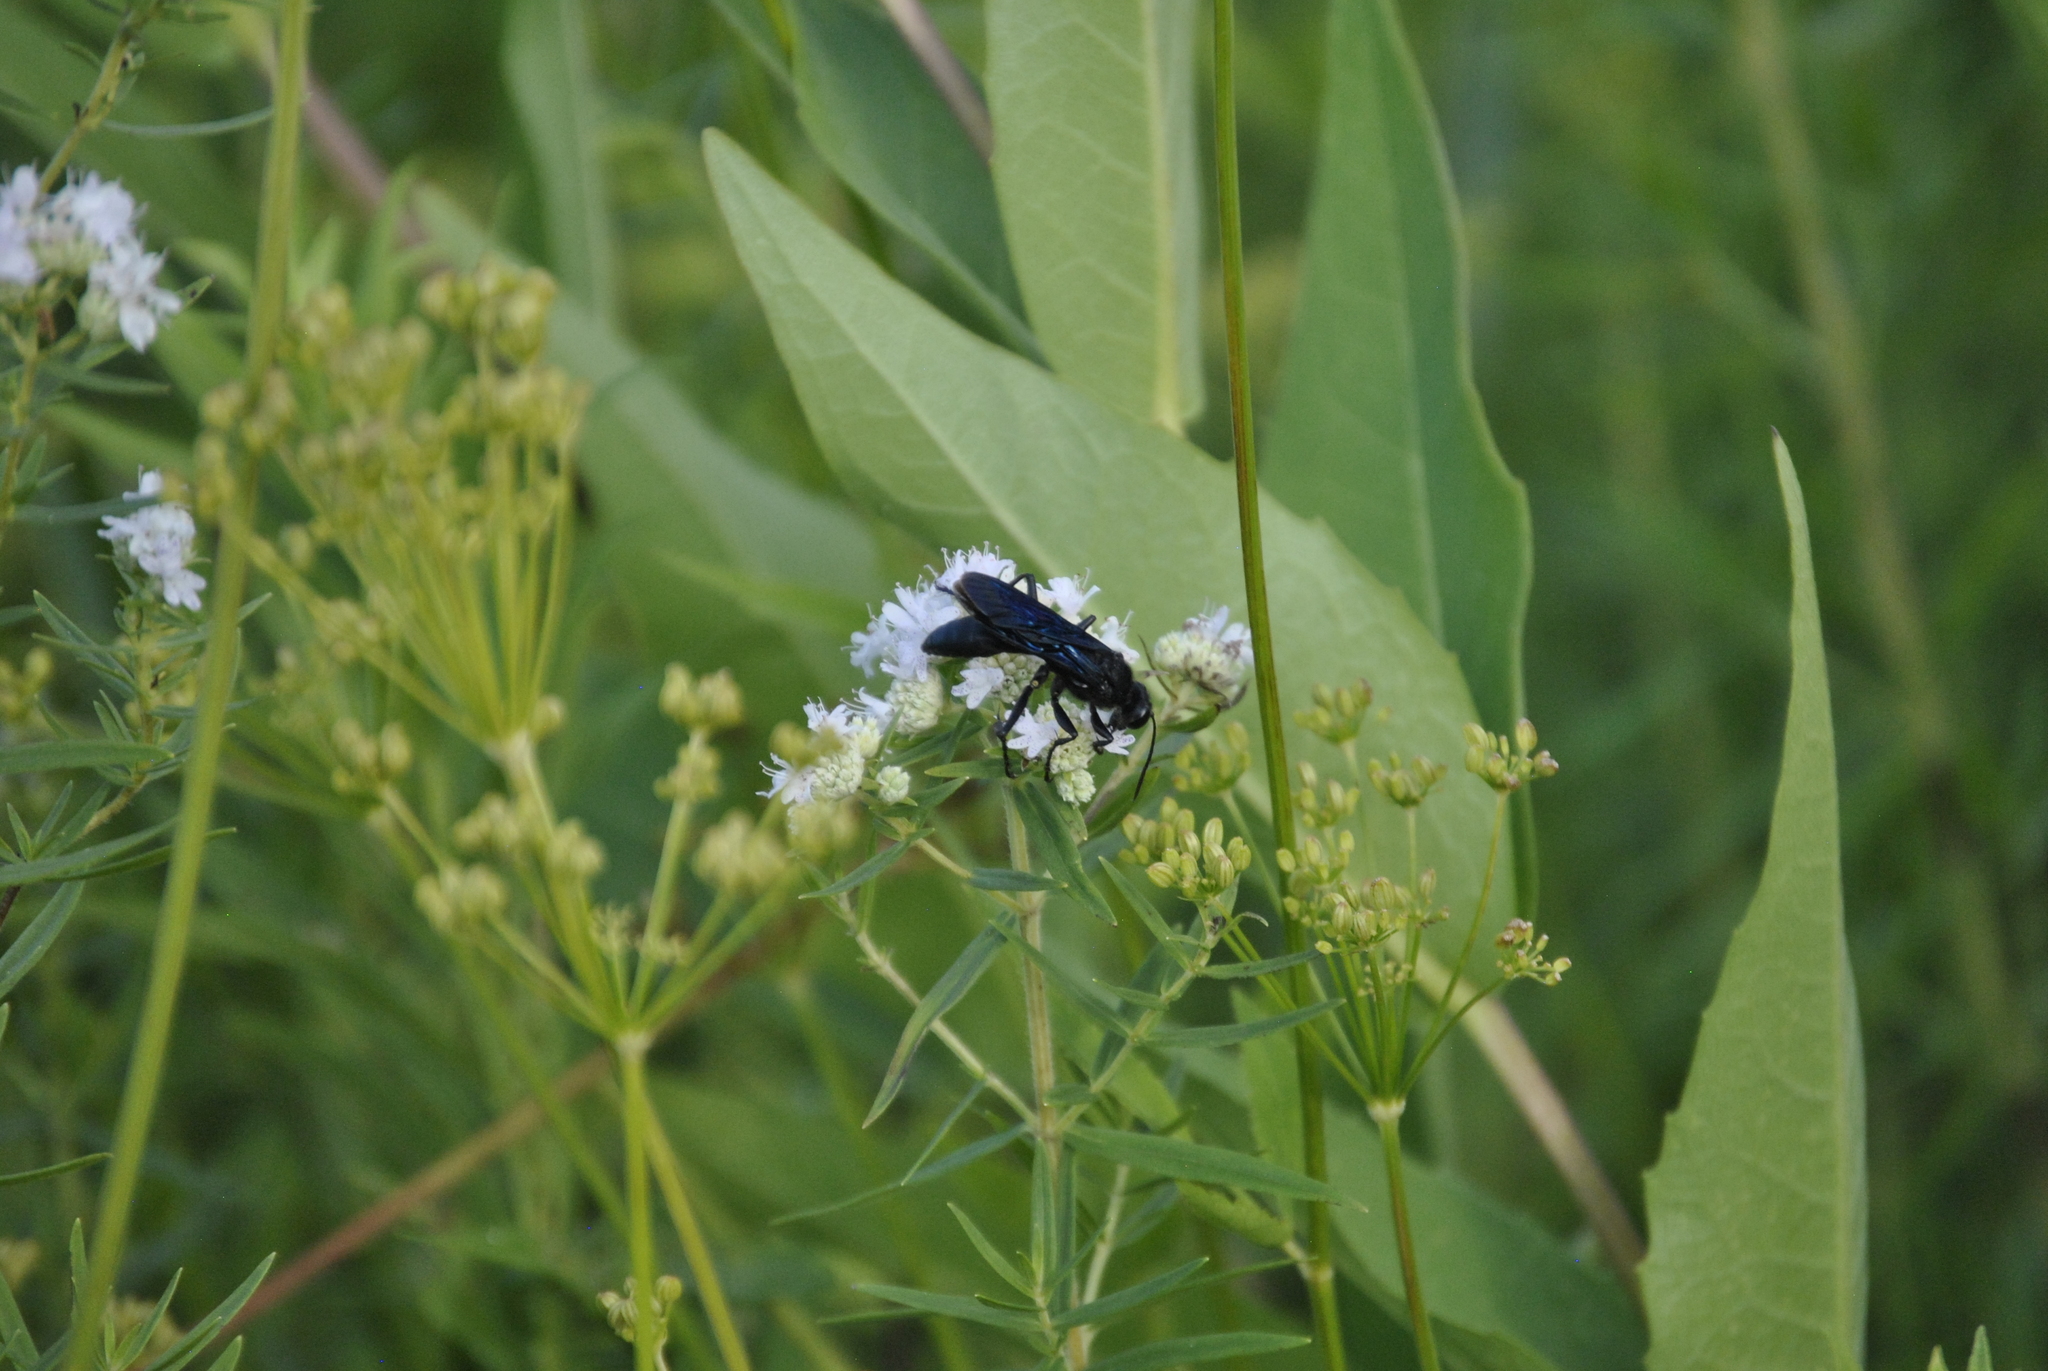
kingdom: Animalia
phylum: Arthropoda
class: Insecta
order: Hymenoptera
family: Sphecidae
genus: Sphex
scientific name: Sphex pensylvanicus
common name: Great black digger wasp
